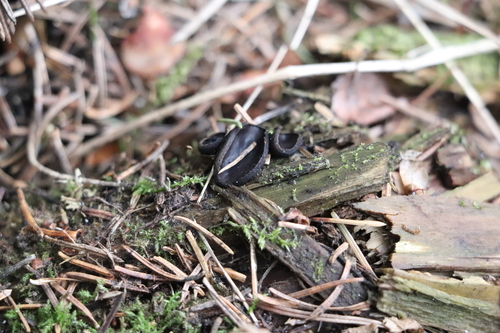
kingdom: Fungi
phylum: Ascomycota
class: Pezizomycetes
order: Pezizales
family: Sarcosomataceae
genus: Pseudoplectania
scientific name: Pseudoplectania nigrella
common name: Ebony cup
